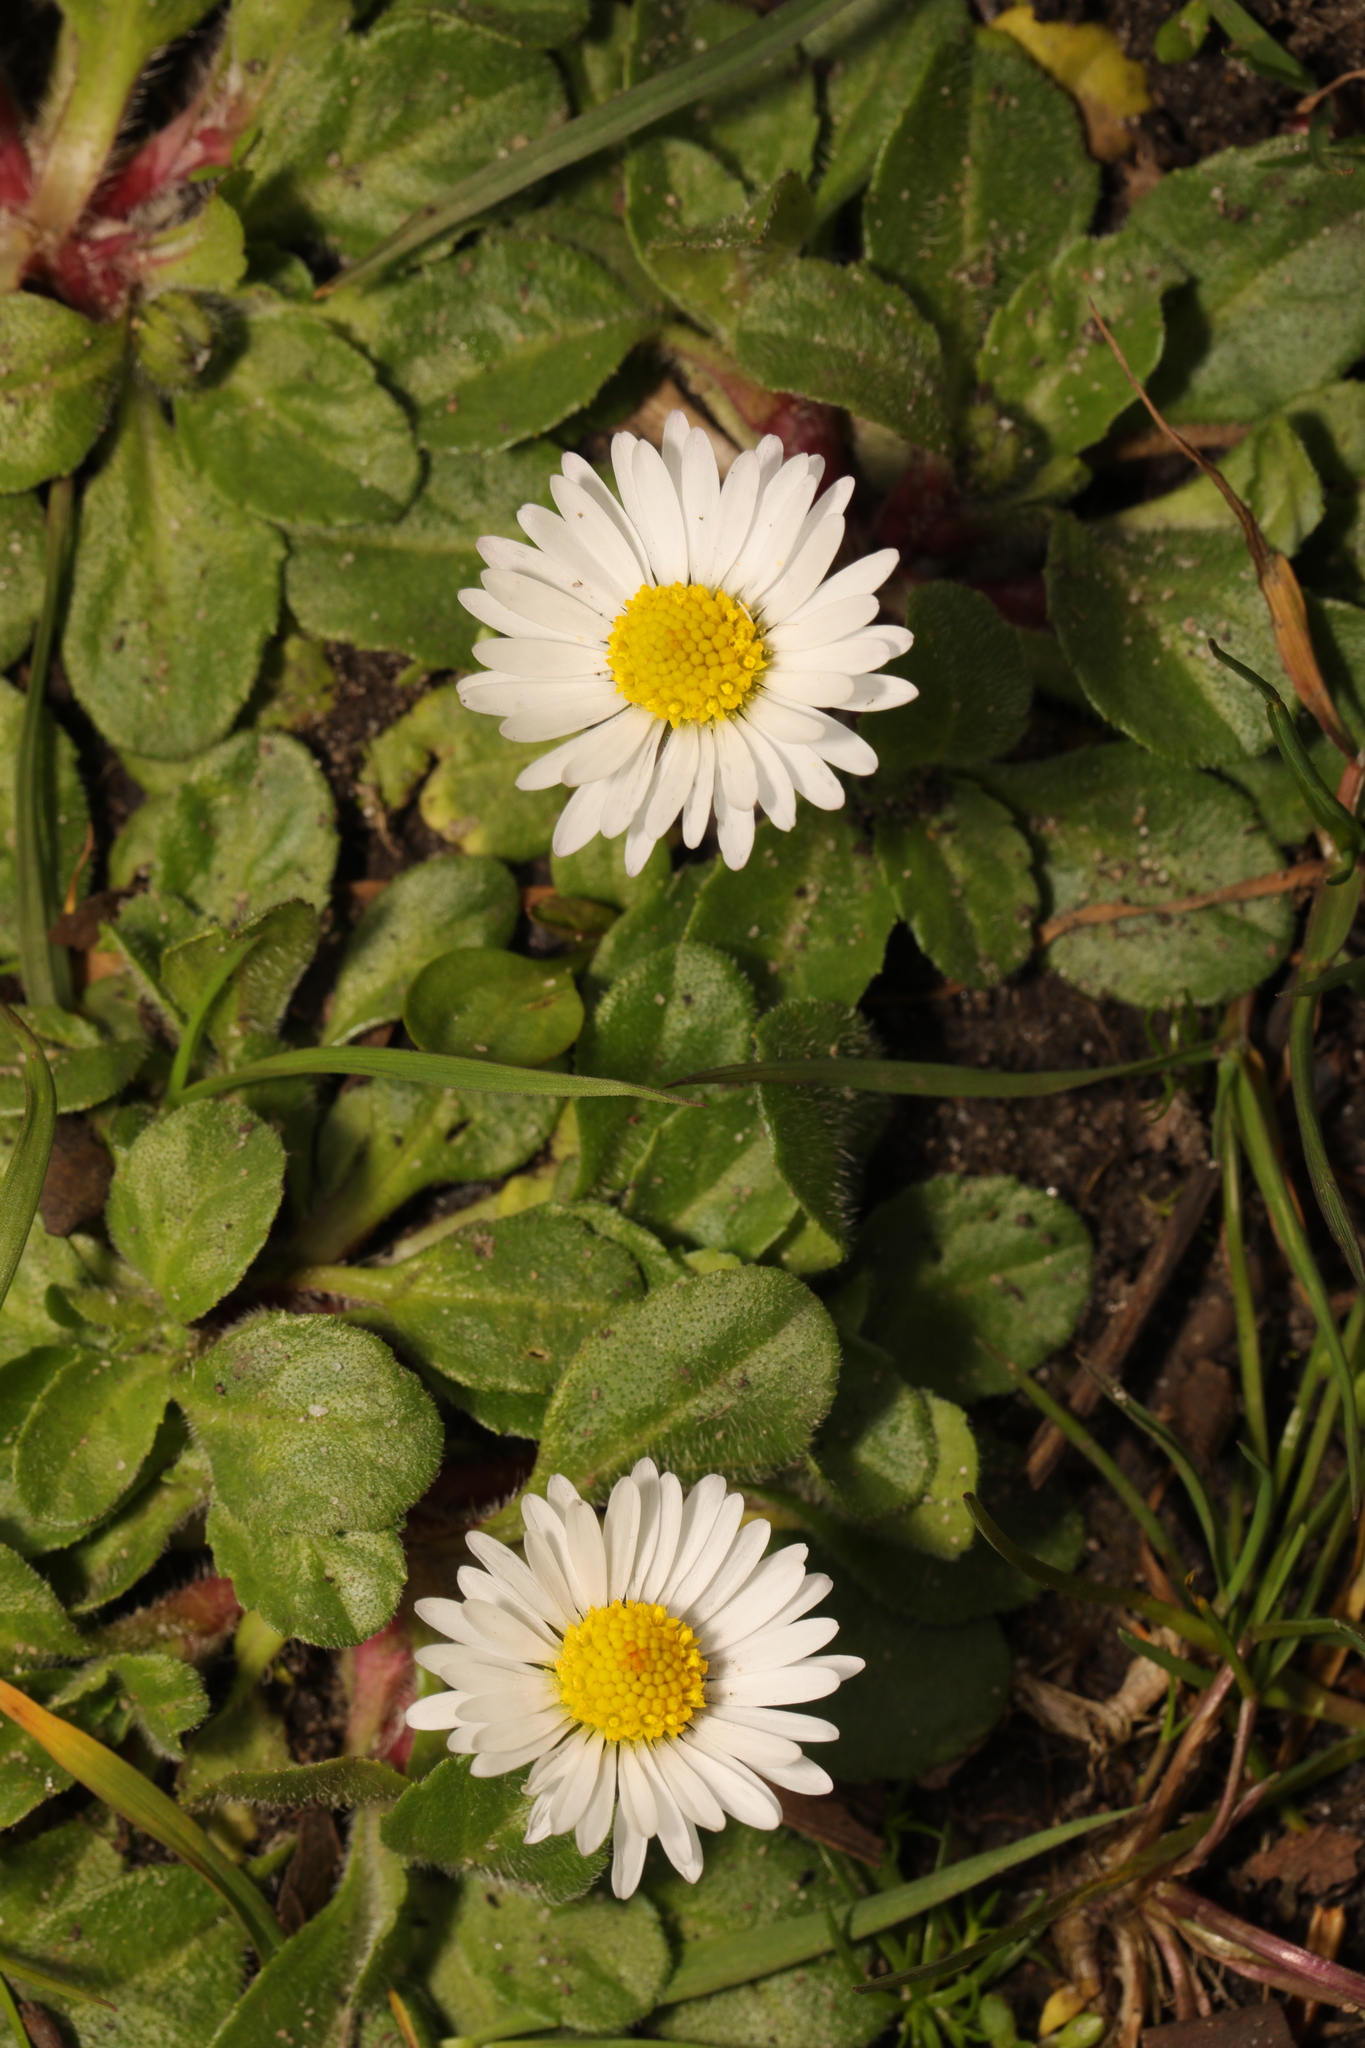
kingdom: Plantae
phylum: Tracheophyta
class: Magnoliopsida
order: Asterales
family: Asteraceae
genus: Bellis
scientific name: Bellis perennis
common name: Lawndaisy
